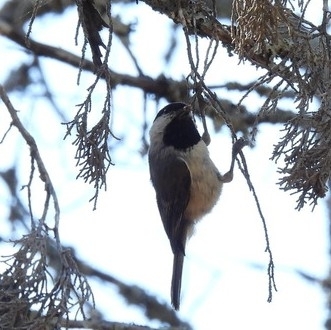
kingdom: Animalia
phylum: Chordata
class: Aves
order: Passeriformes
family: Paridae
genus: Poecile
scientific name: Poecile carolinensis
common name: Carolina chickadee
